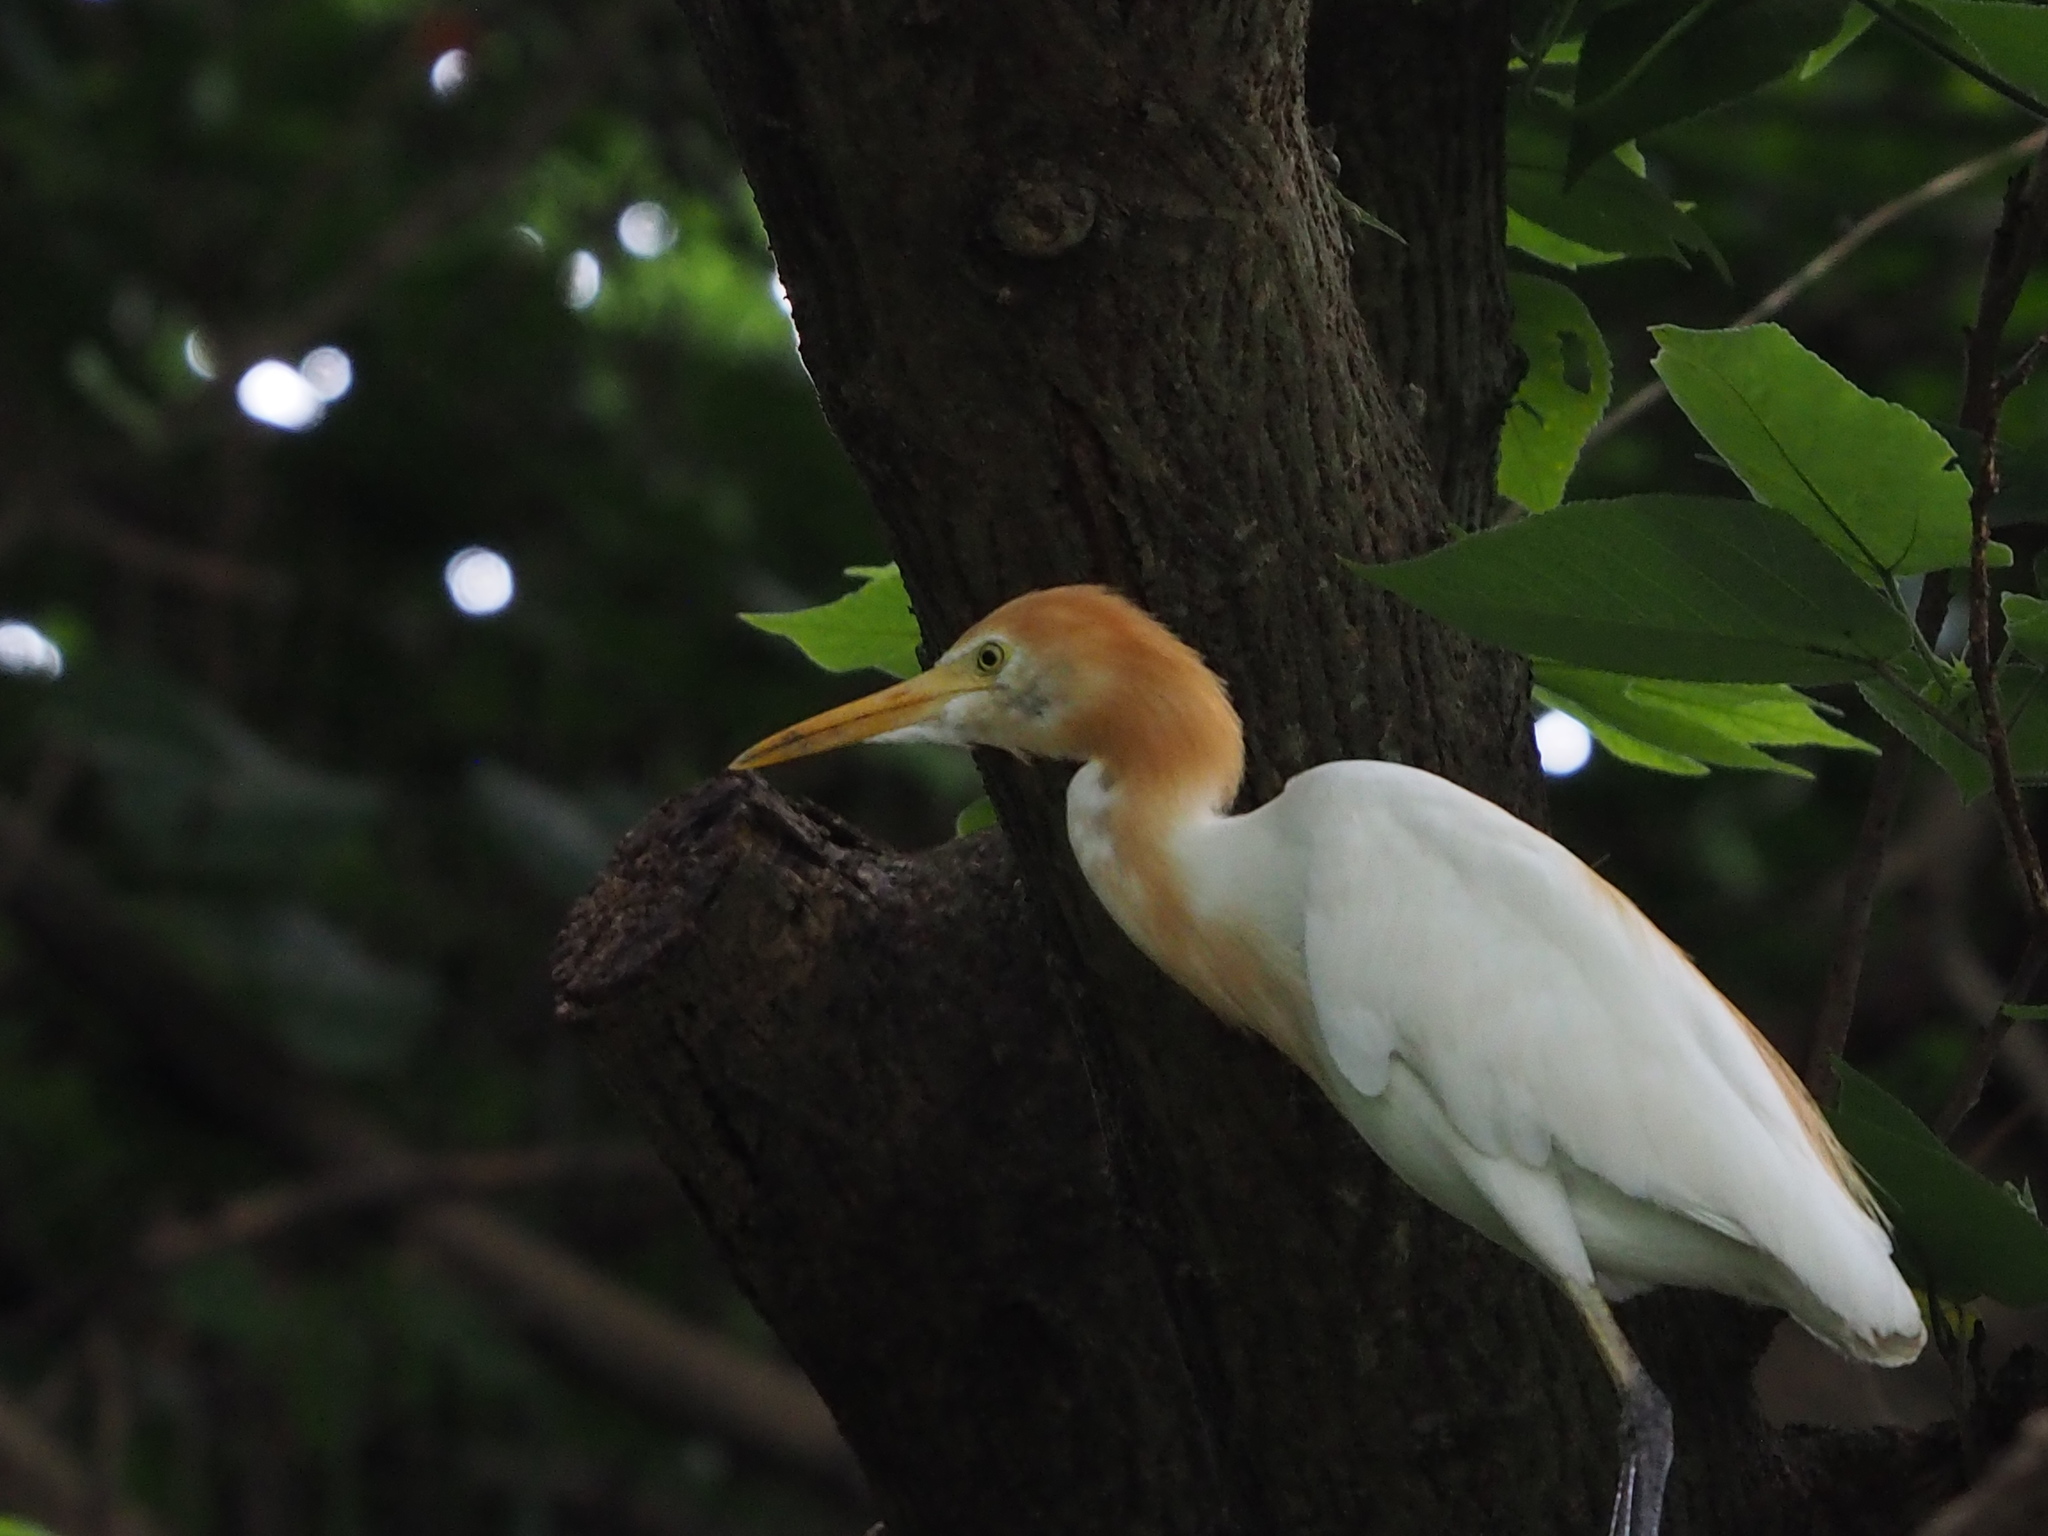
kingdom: Animalia
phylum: Chordata
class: Aves
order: Pelecaniformes
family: Ardeidae
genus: Bubulcus
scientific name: Bubulcus coromandus
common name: Eastern cattle egret
